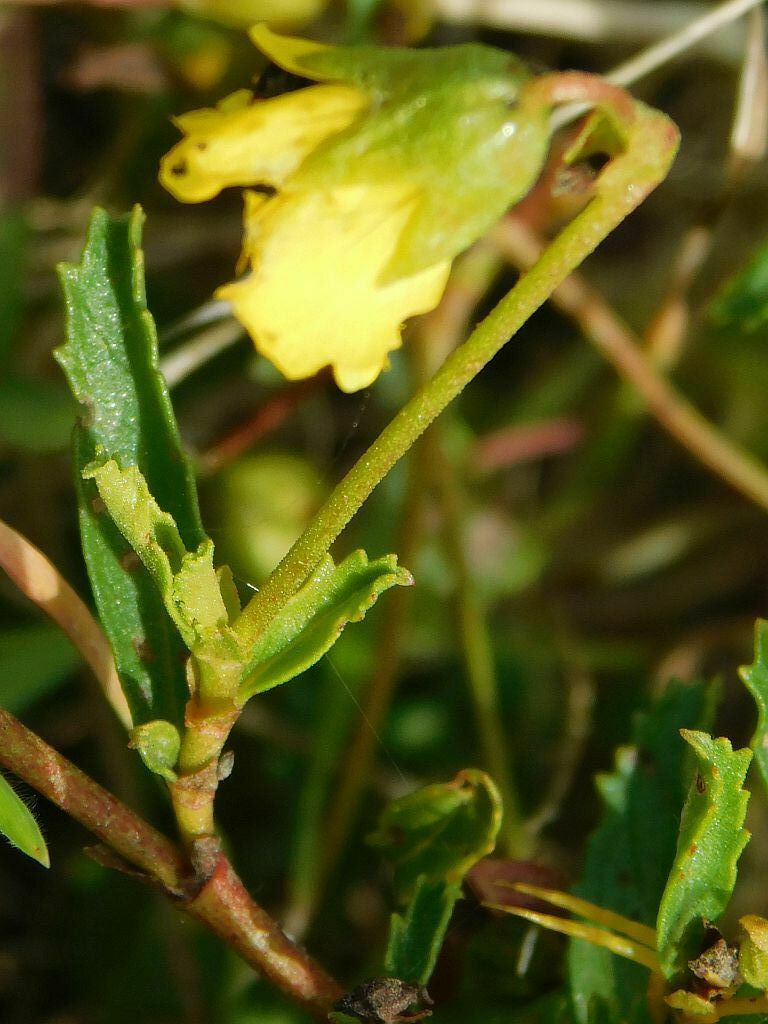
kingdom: Plantae
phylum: Tracheophyta
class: Magnoliopsida
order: Malvales
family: Malvaceae
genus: Hermannia
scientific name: Hermannia saccifera
